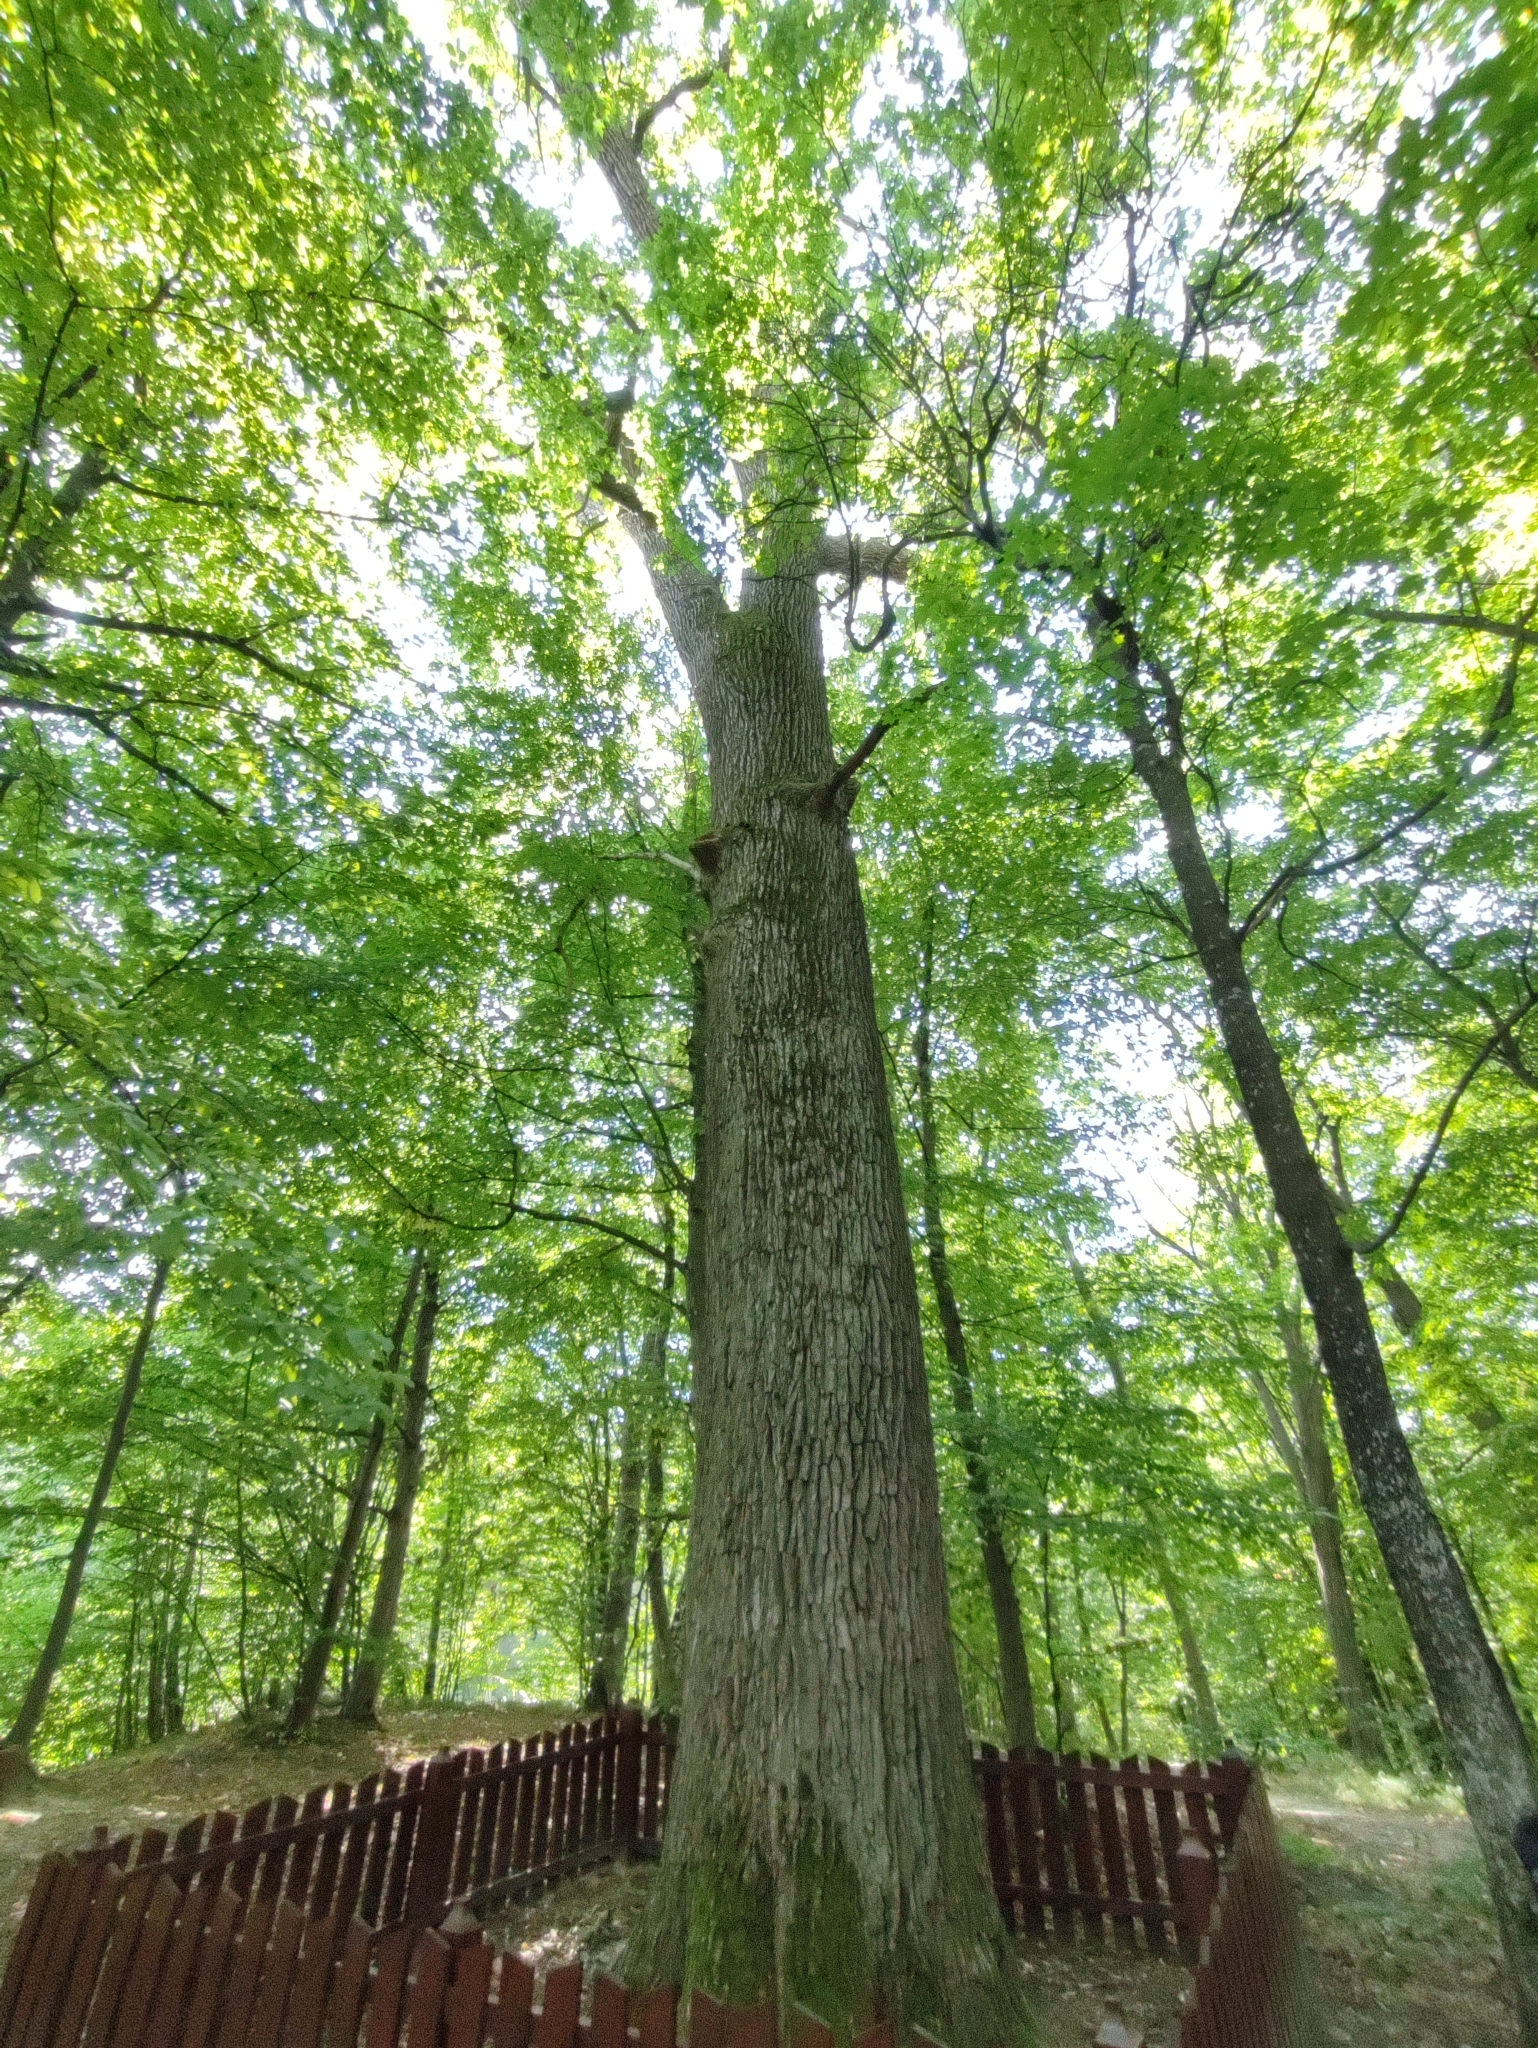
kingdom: Plantae
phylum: Tracheophyta
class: Magnoliopsida
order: Fagales
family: Fagaceae
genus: Quercus
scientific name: Quercus robur
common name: Pedunculate oak
